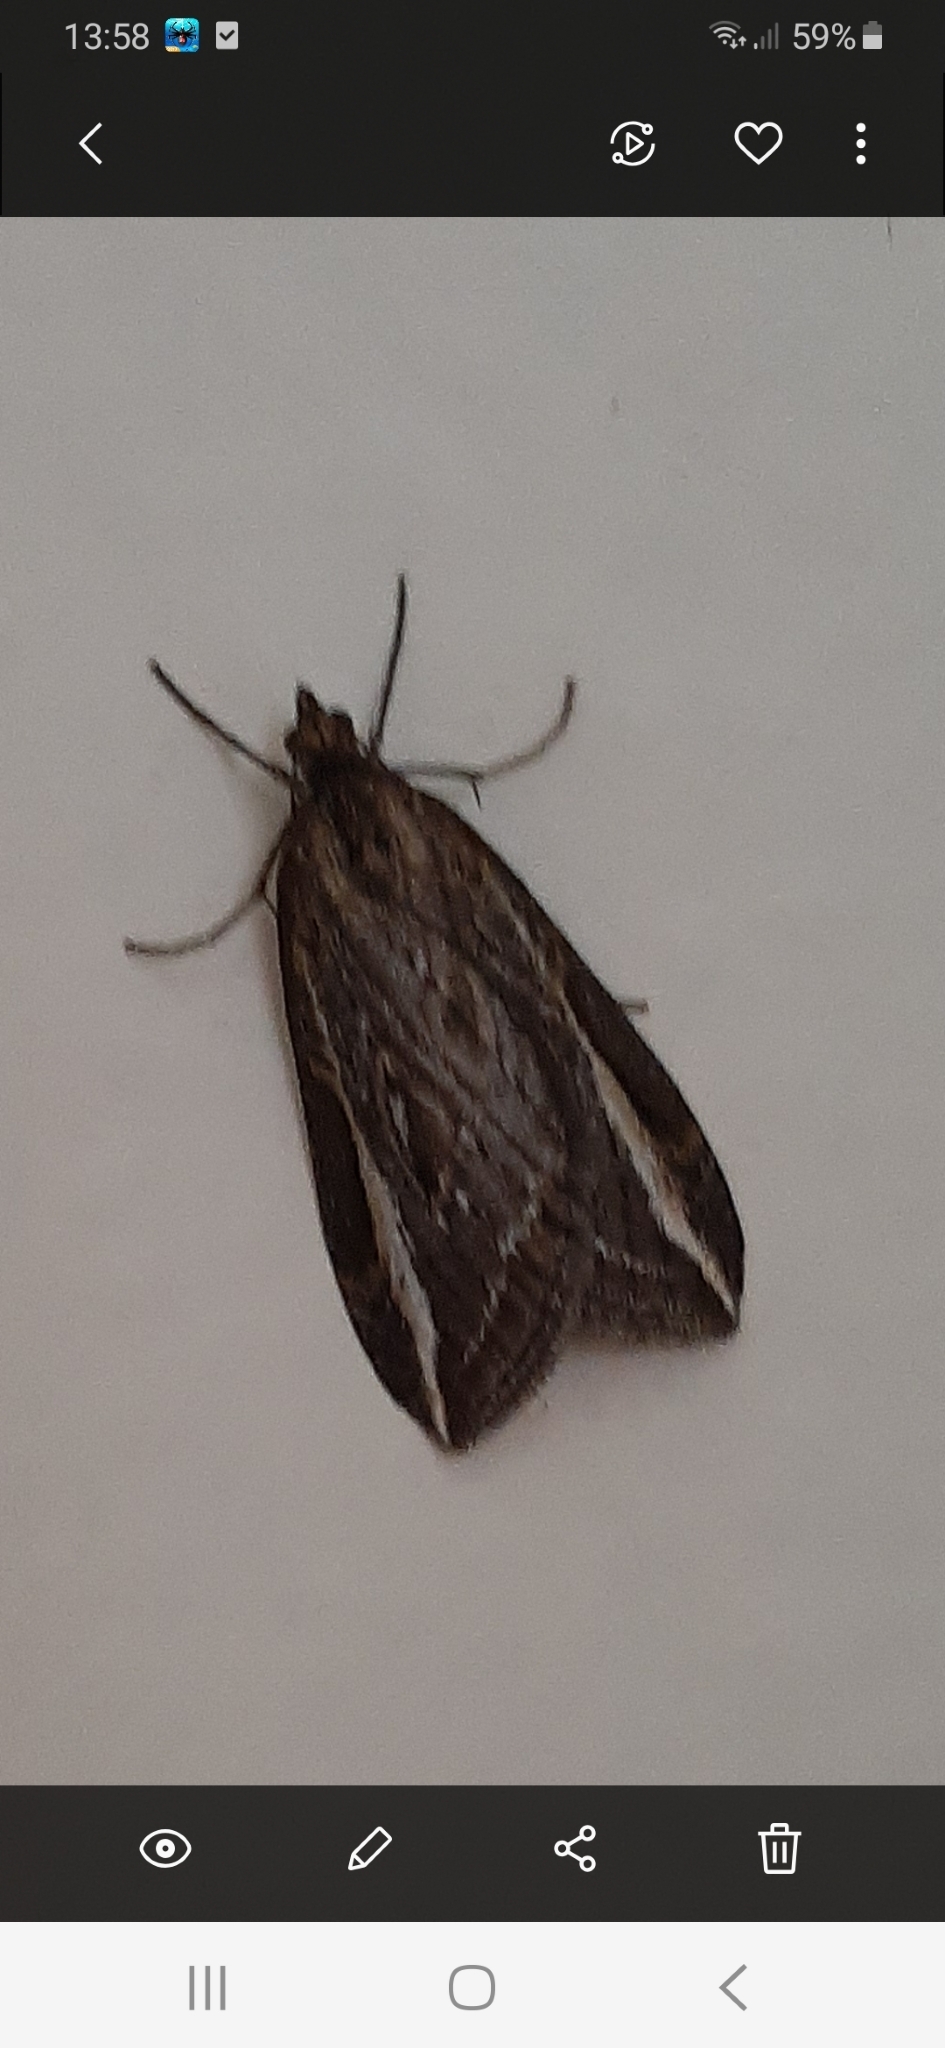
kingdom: Animalia
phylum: Arthropoda
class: Insecta
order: Lepidoptera
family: Geometridae
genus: Chesias
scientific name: Chesias legatella
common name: Streak
